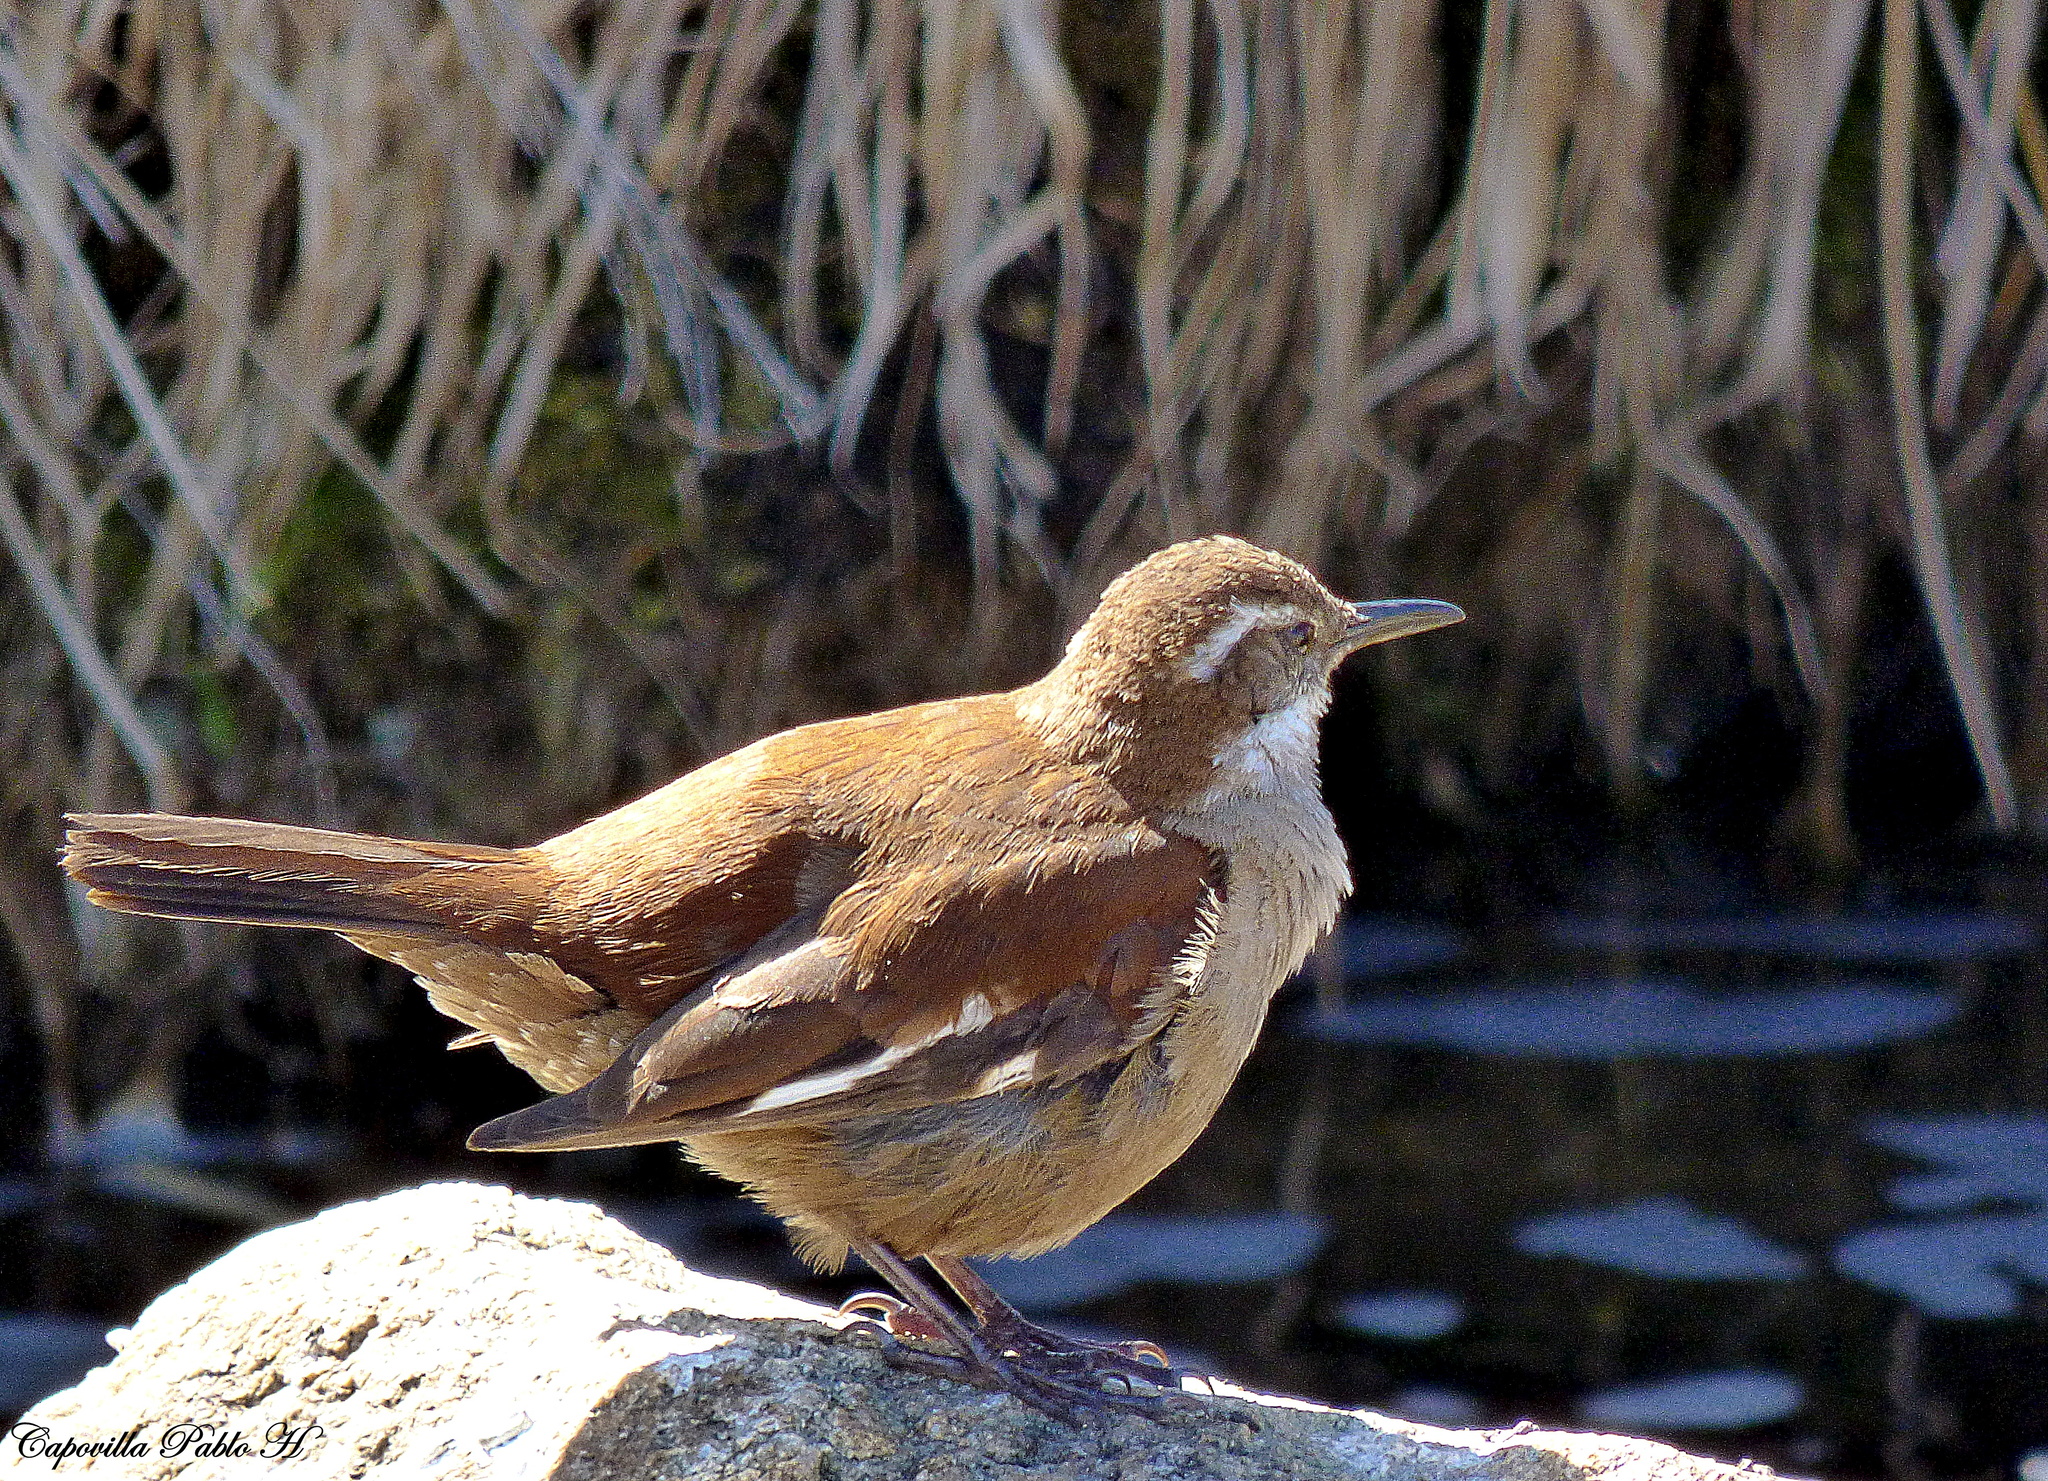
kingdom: Animalia
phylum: Chordata
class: Aves
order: Passeriformes
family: Furnariidae
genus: Cinclodes
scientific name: Cinclodes atacamensis
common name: White-winged cinclodes
